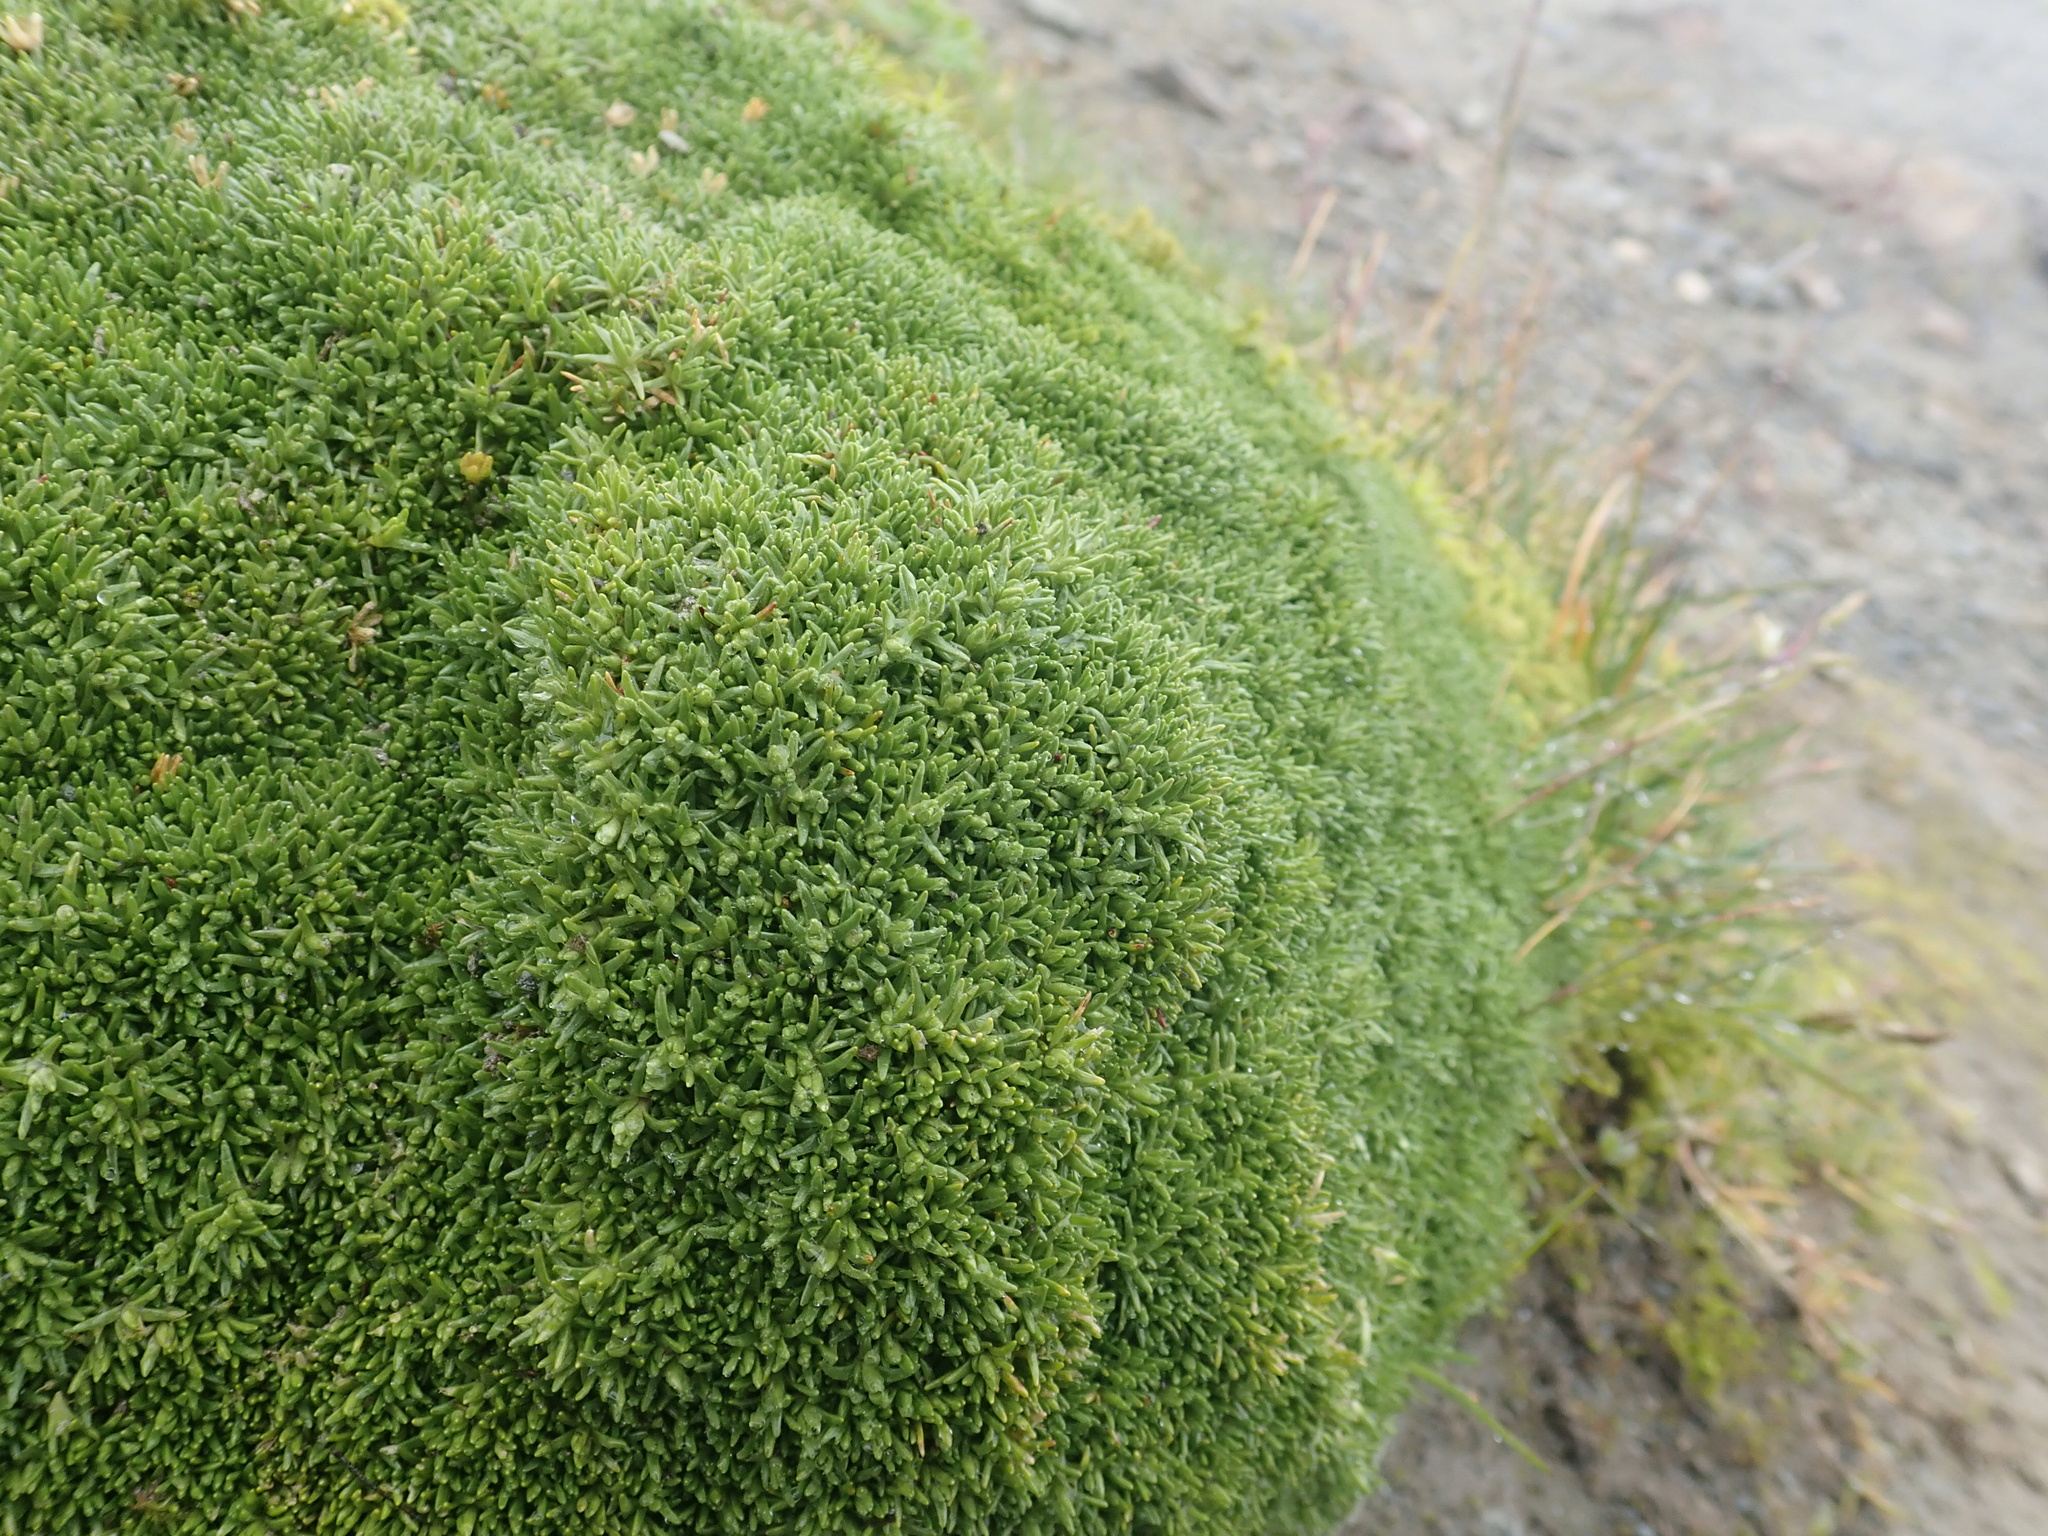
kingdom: Plantae
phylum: Tracheophyta
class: Magnoliopsida
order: Caryophyllales
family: Caryophyllaceae
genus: Silene
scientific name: Silene acaulis
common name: Moss campion
